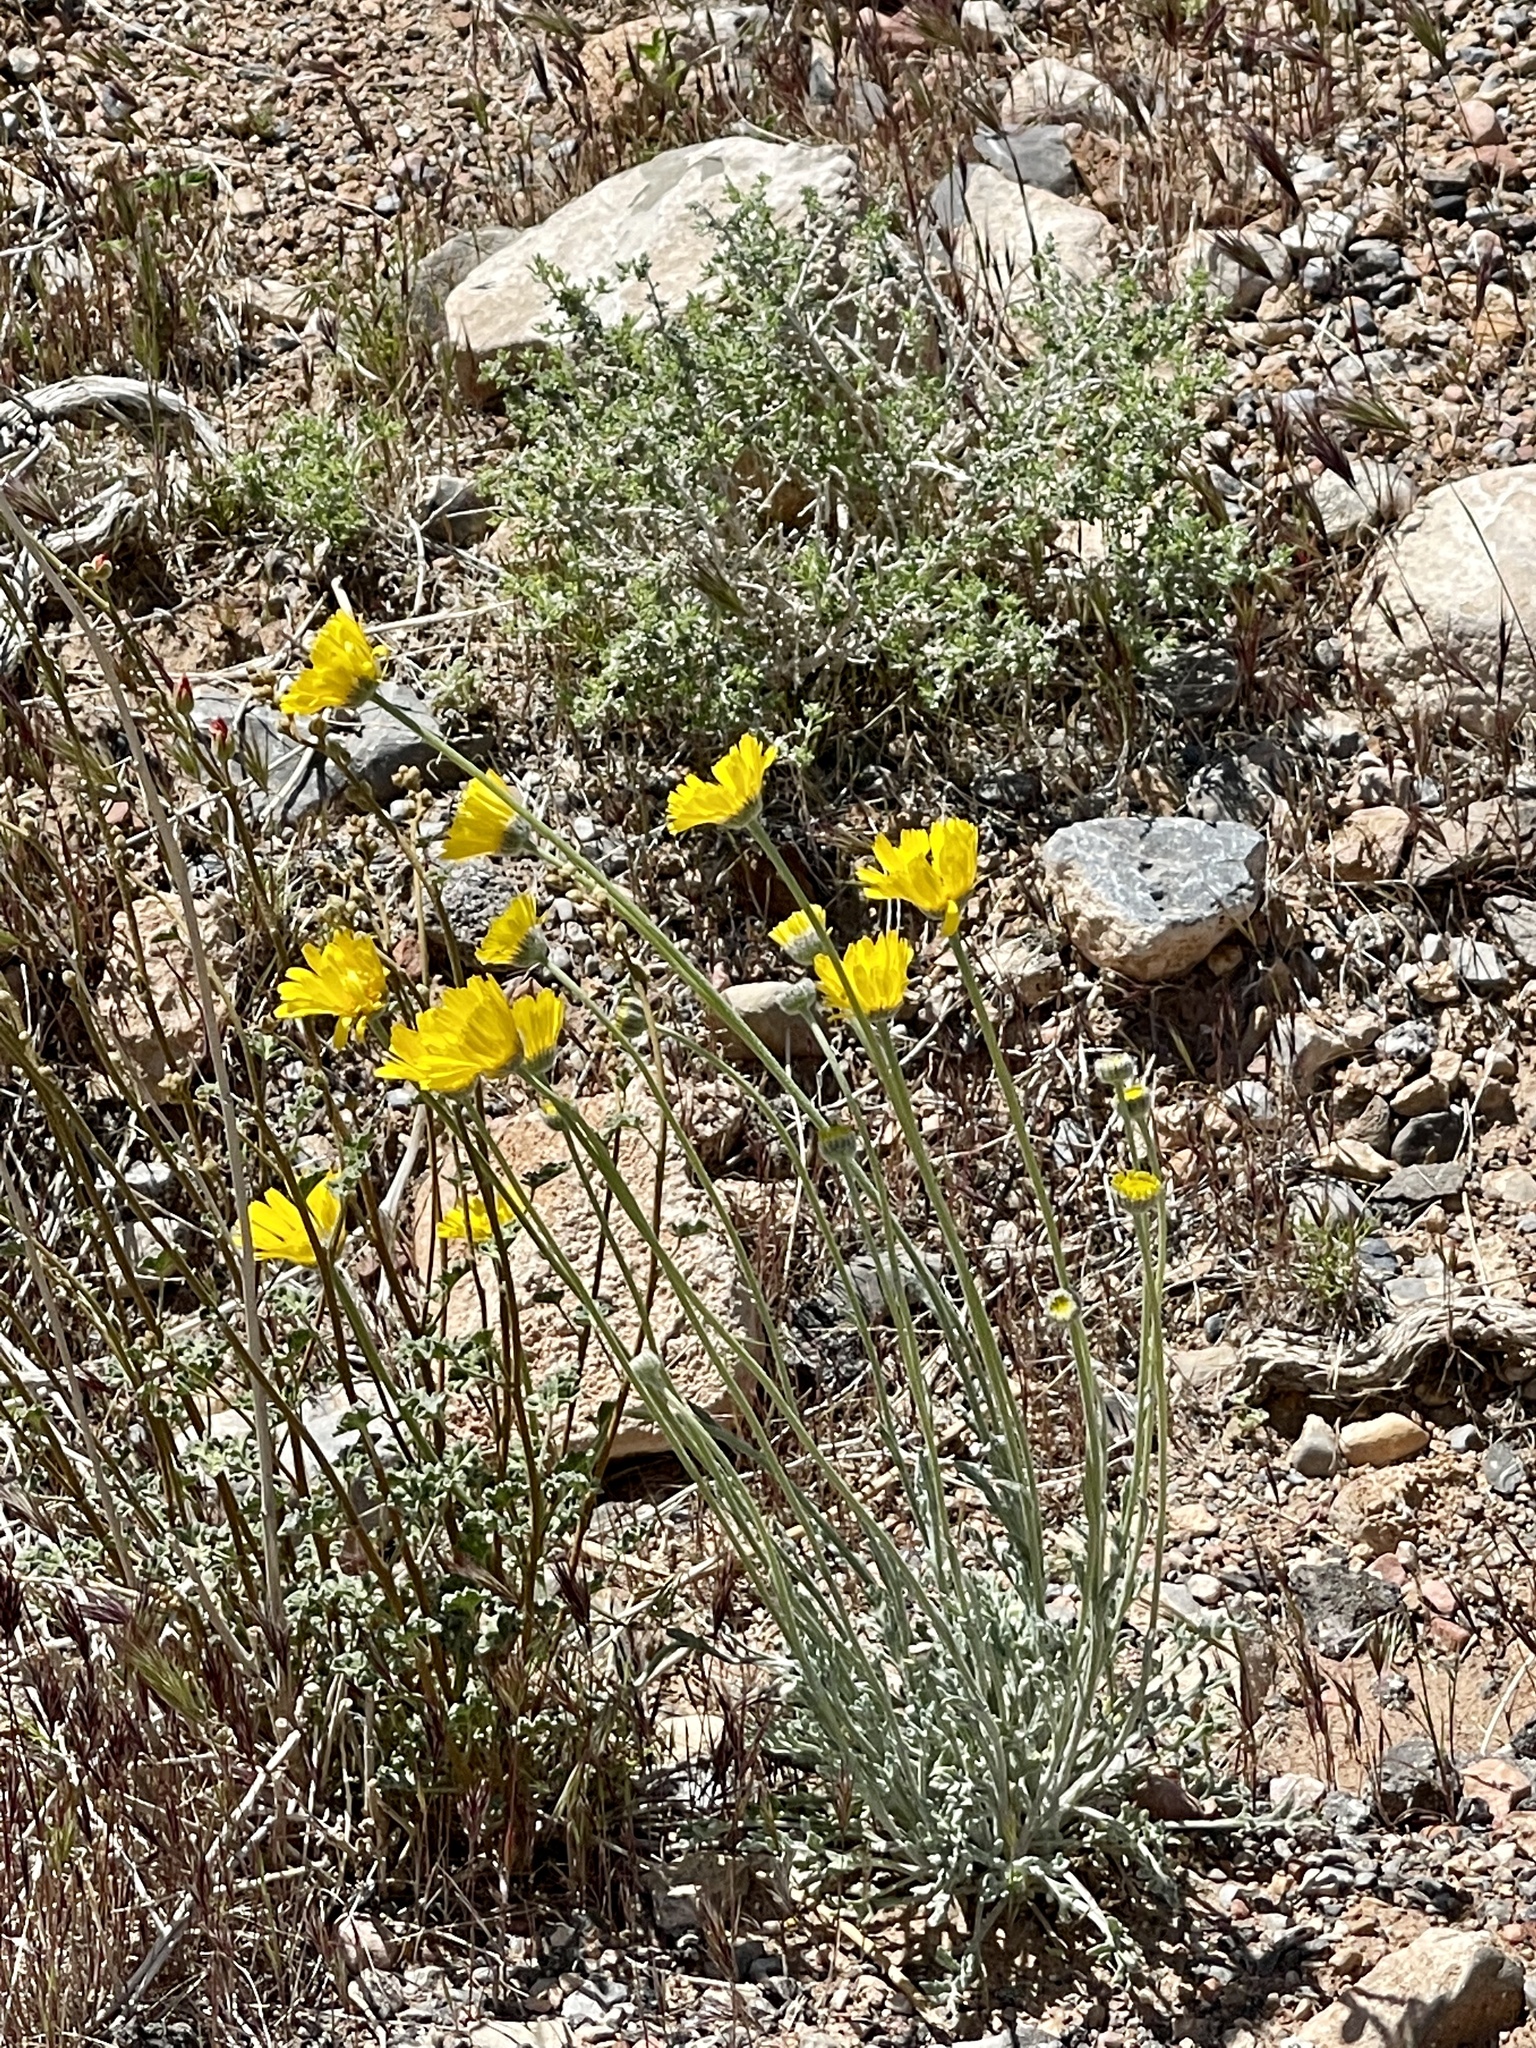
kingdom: Plantae
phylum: Tracheophyta
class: Magnoliopsida
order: Asterales
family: Asteraceae
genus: Baileya
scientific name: Baileya multiradiata
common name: Desert-marigold
